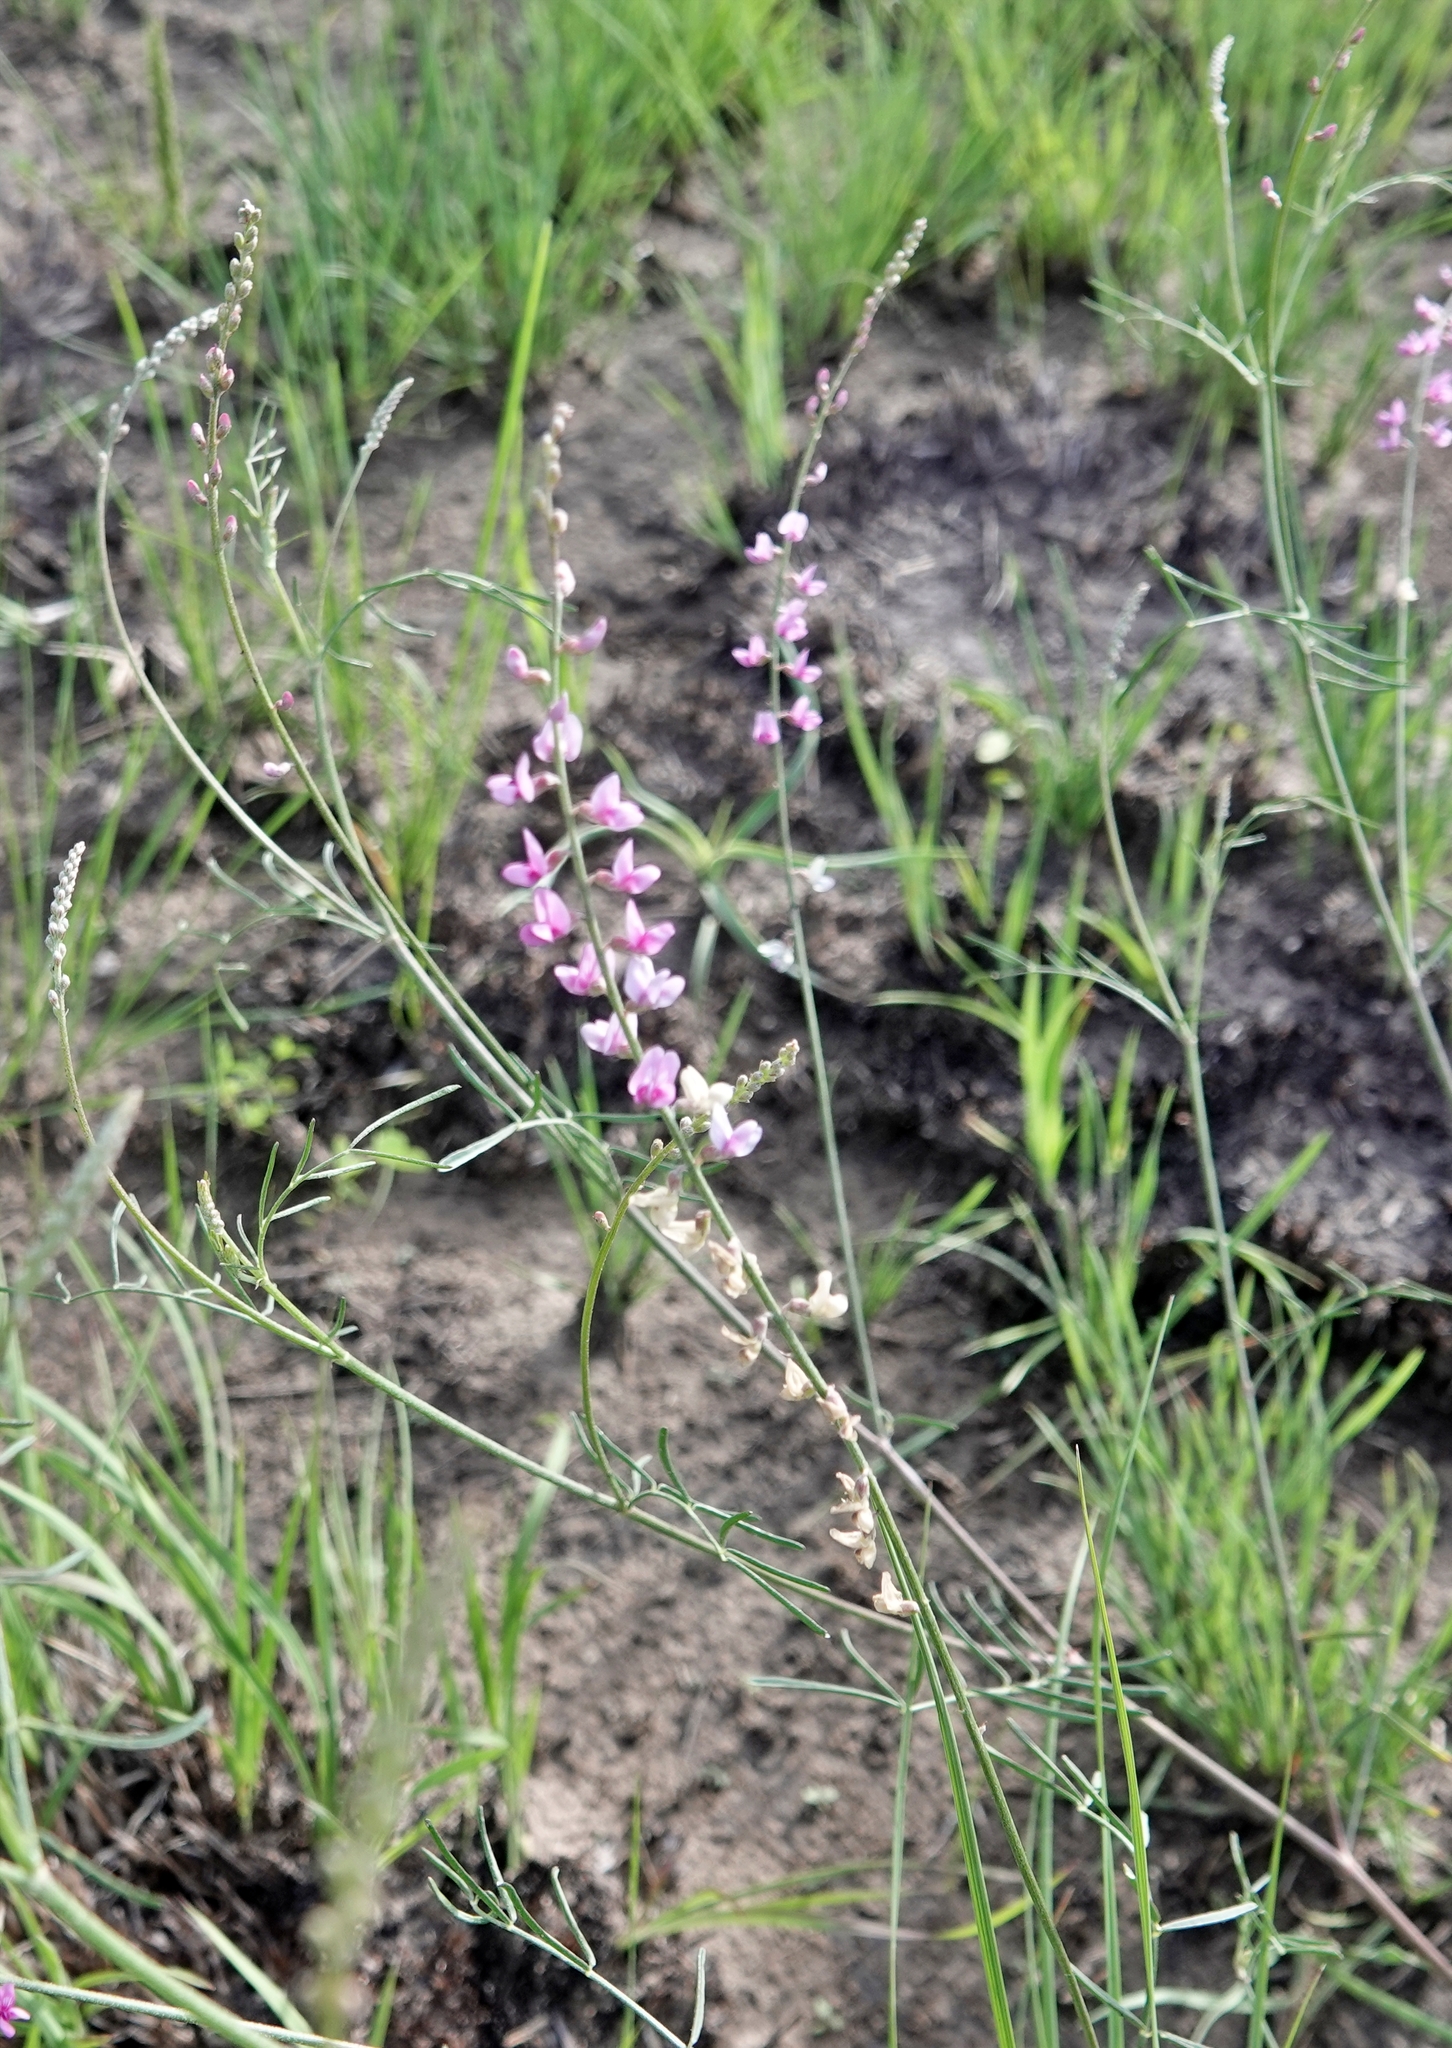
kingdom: Plantae
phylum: Tracheophyta
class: Magnoliopsida
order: Fabales
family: Fabaceae
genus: Astragalus
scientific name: Astragalus gracilis
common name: Slender milk-vetch
